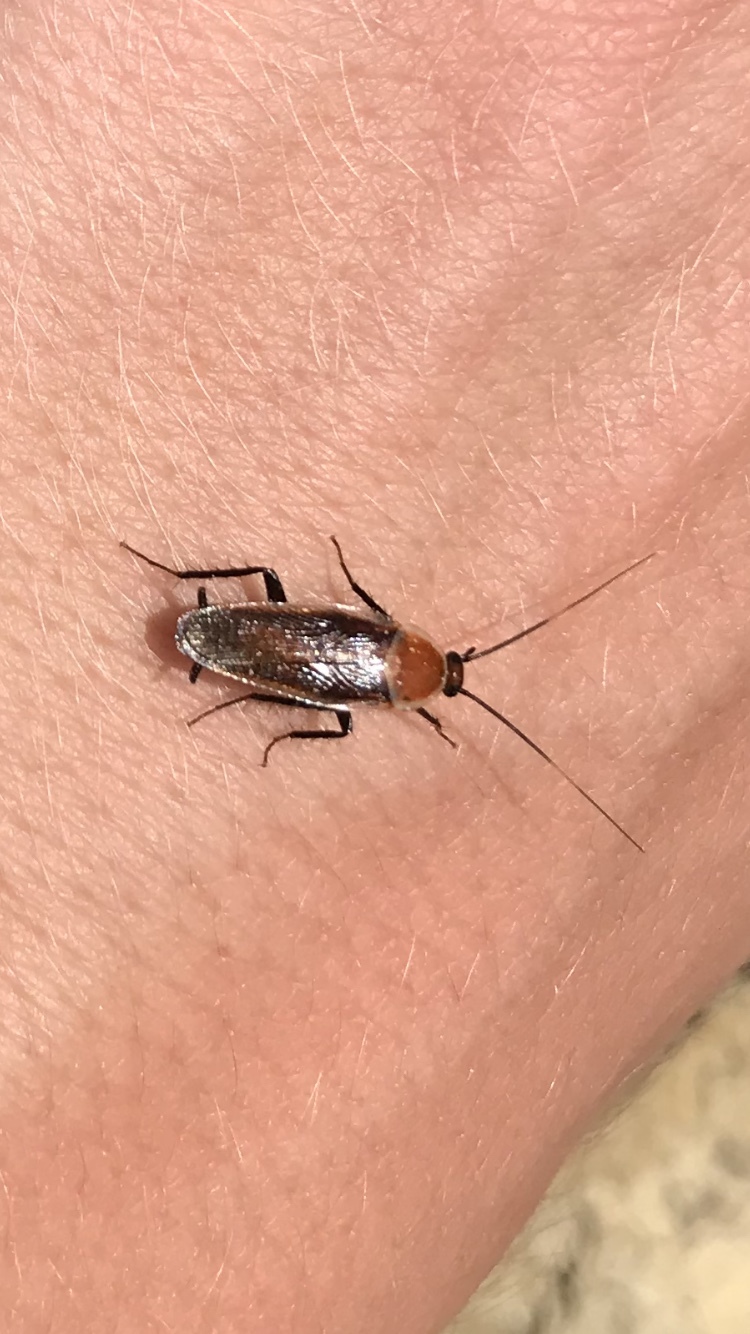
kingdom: Animalia
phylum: Arthropoda
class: Insecta
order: Blattodea
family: Ectobiidae
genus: Pseudomops
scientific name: Pseudomops septentrionalis
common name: Pale-bordered field cockroach
